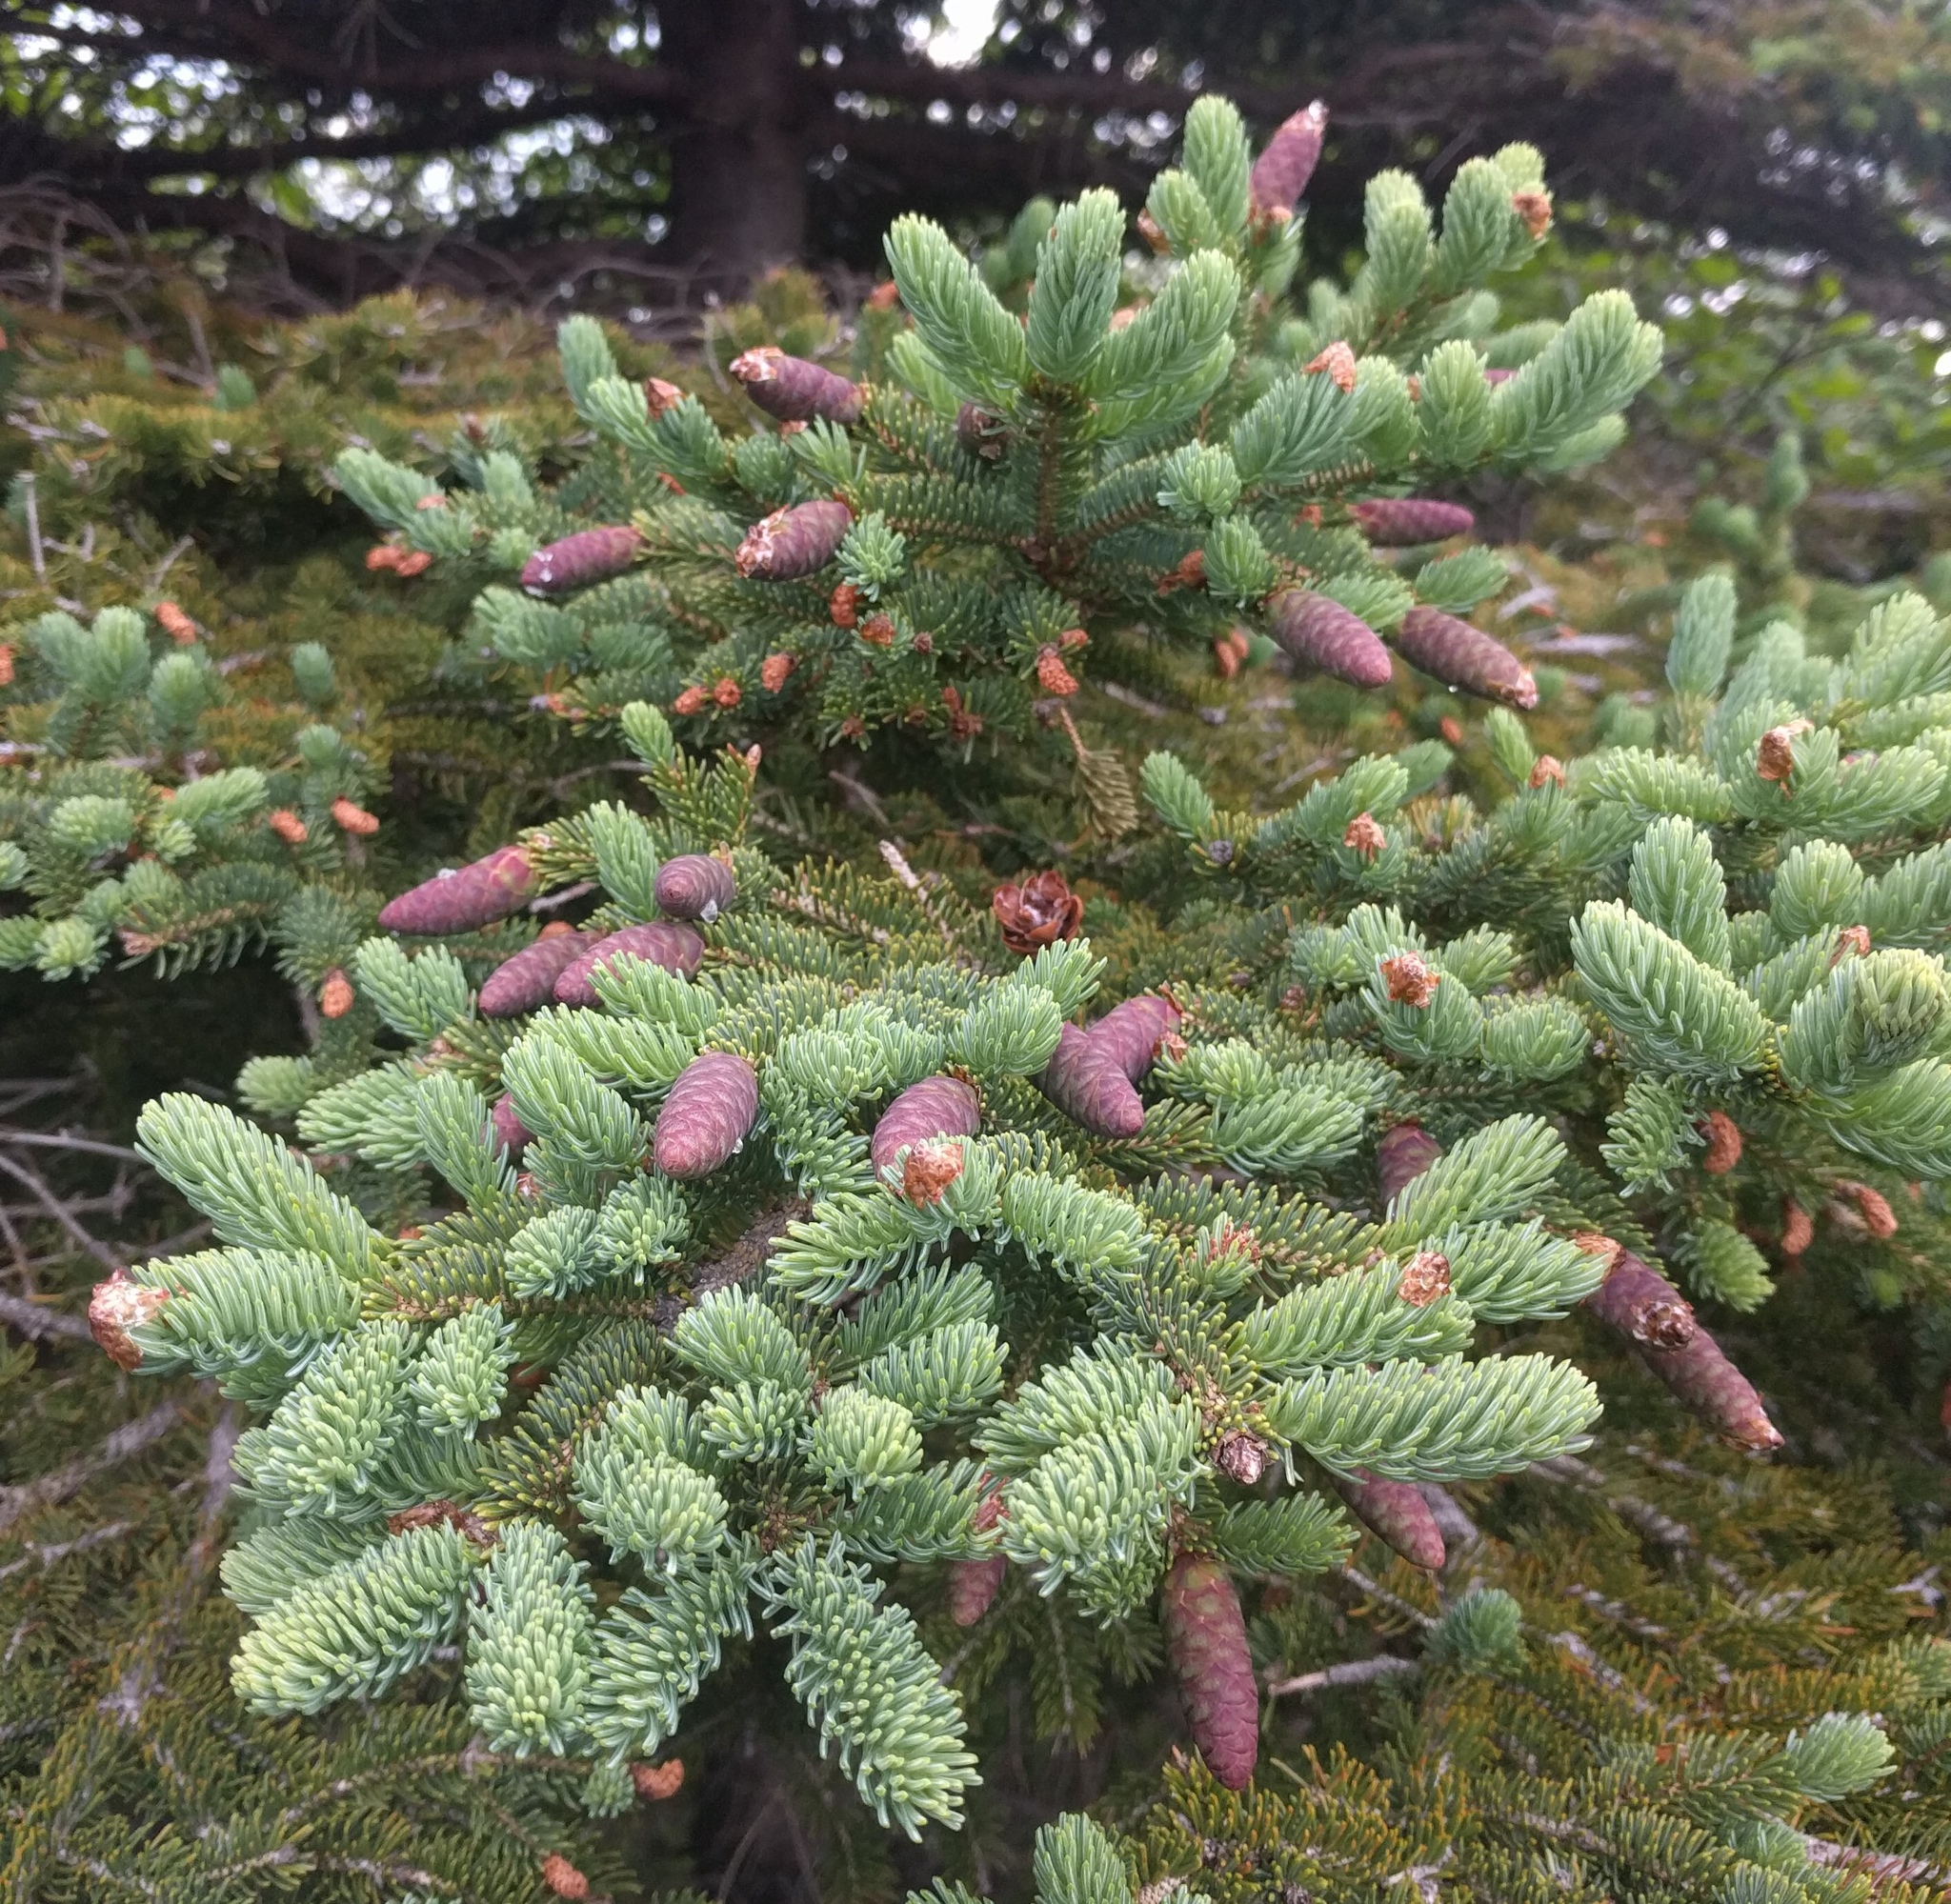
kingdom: Plantae
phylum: Tracheophyta
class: Pinopsida
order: Pinales
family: Pinaceae
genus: Picea
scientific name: Picea glauca
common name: White spruce
